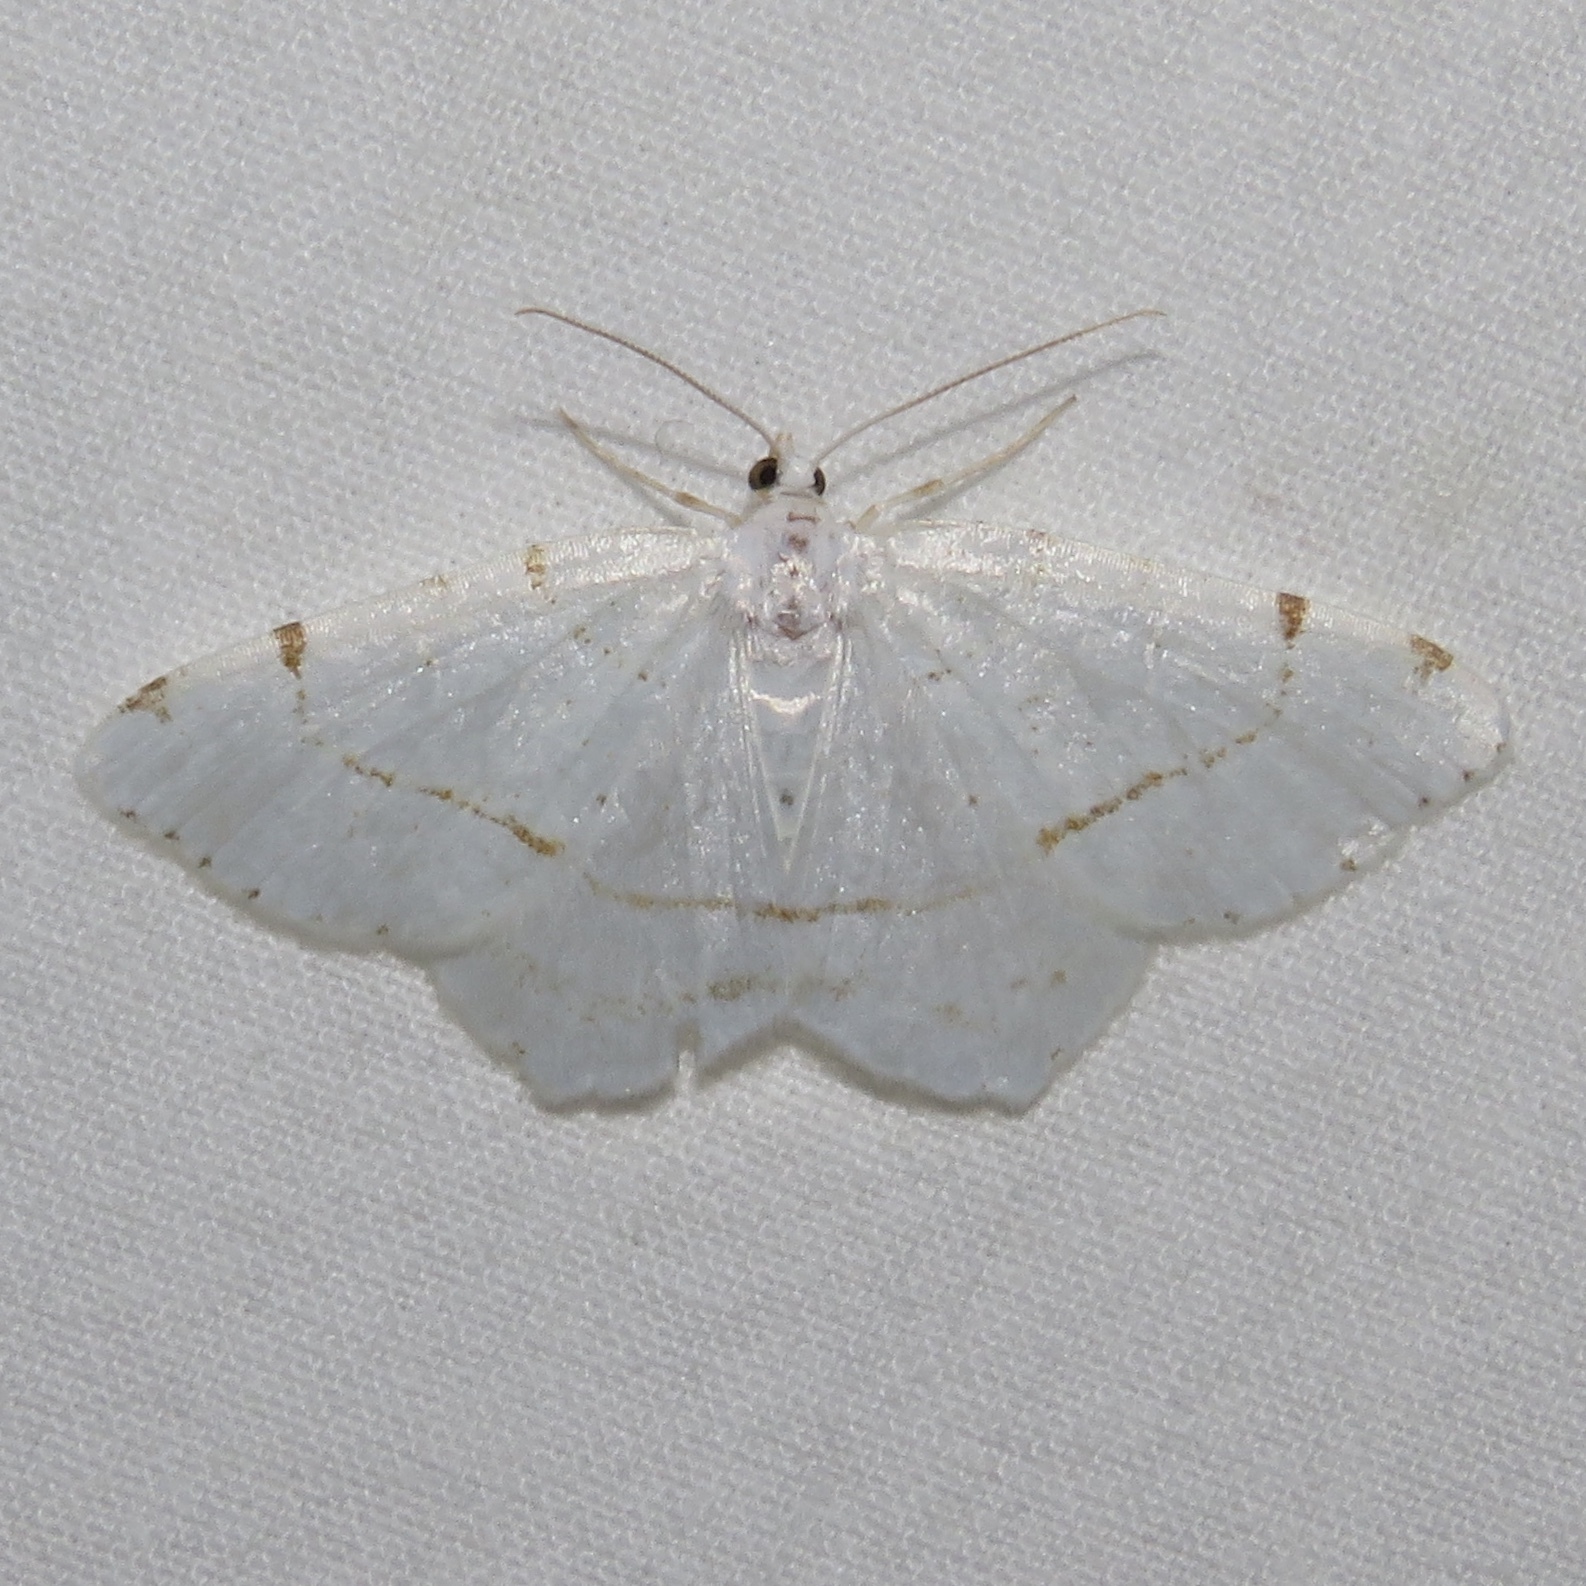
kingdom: Animalia
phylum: Arthropoda
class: Insecta
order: Lepidoptera
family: Geometridae
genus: Macaria
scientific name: Macaria pustularia
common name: Lesser maple spanworm moth
